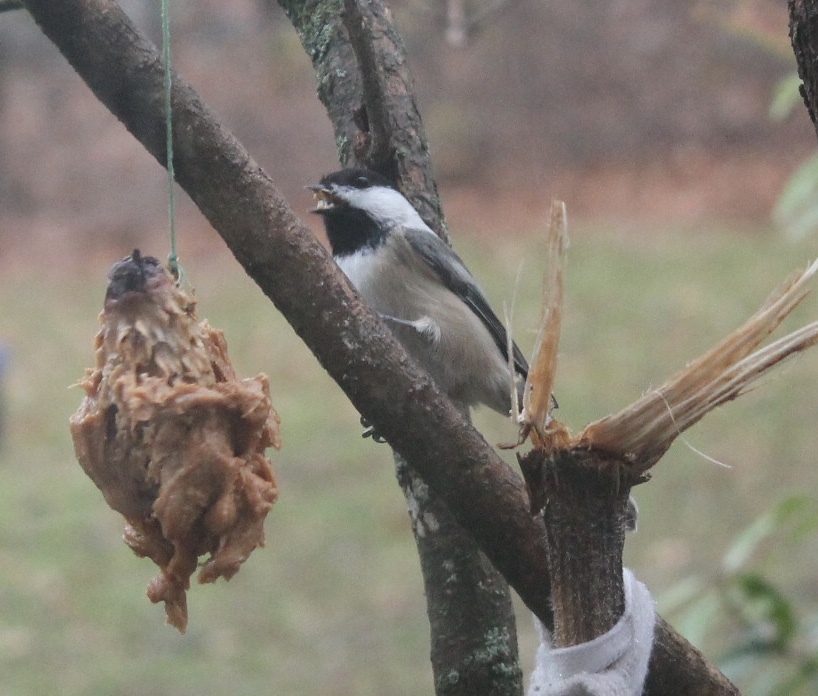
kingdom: Animalia
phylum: Chordata
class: Aves
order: Passeriformes
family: Paridae
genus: Poecile
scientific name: Poecile atricapillus
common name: Black-capped chickadee
